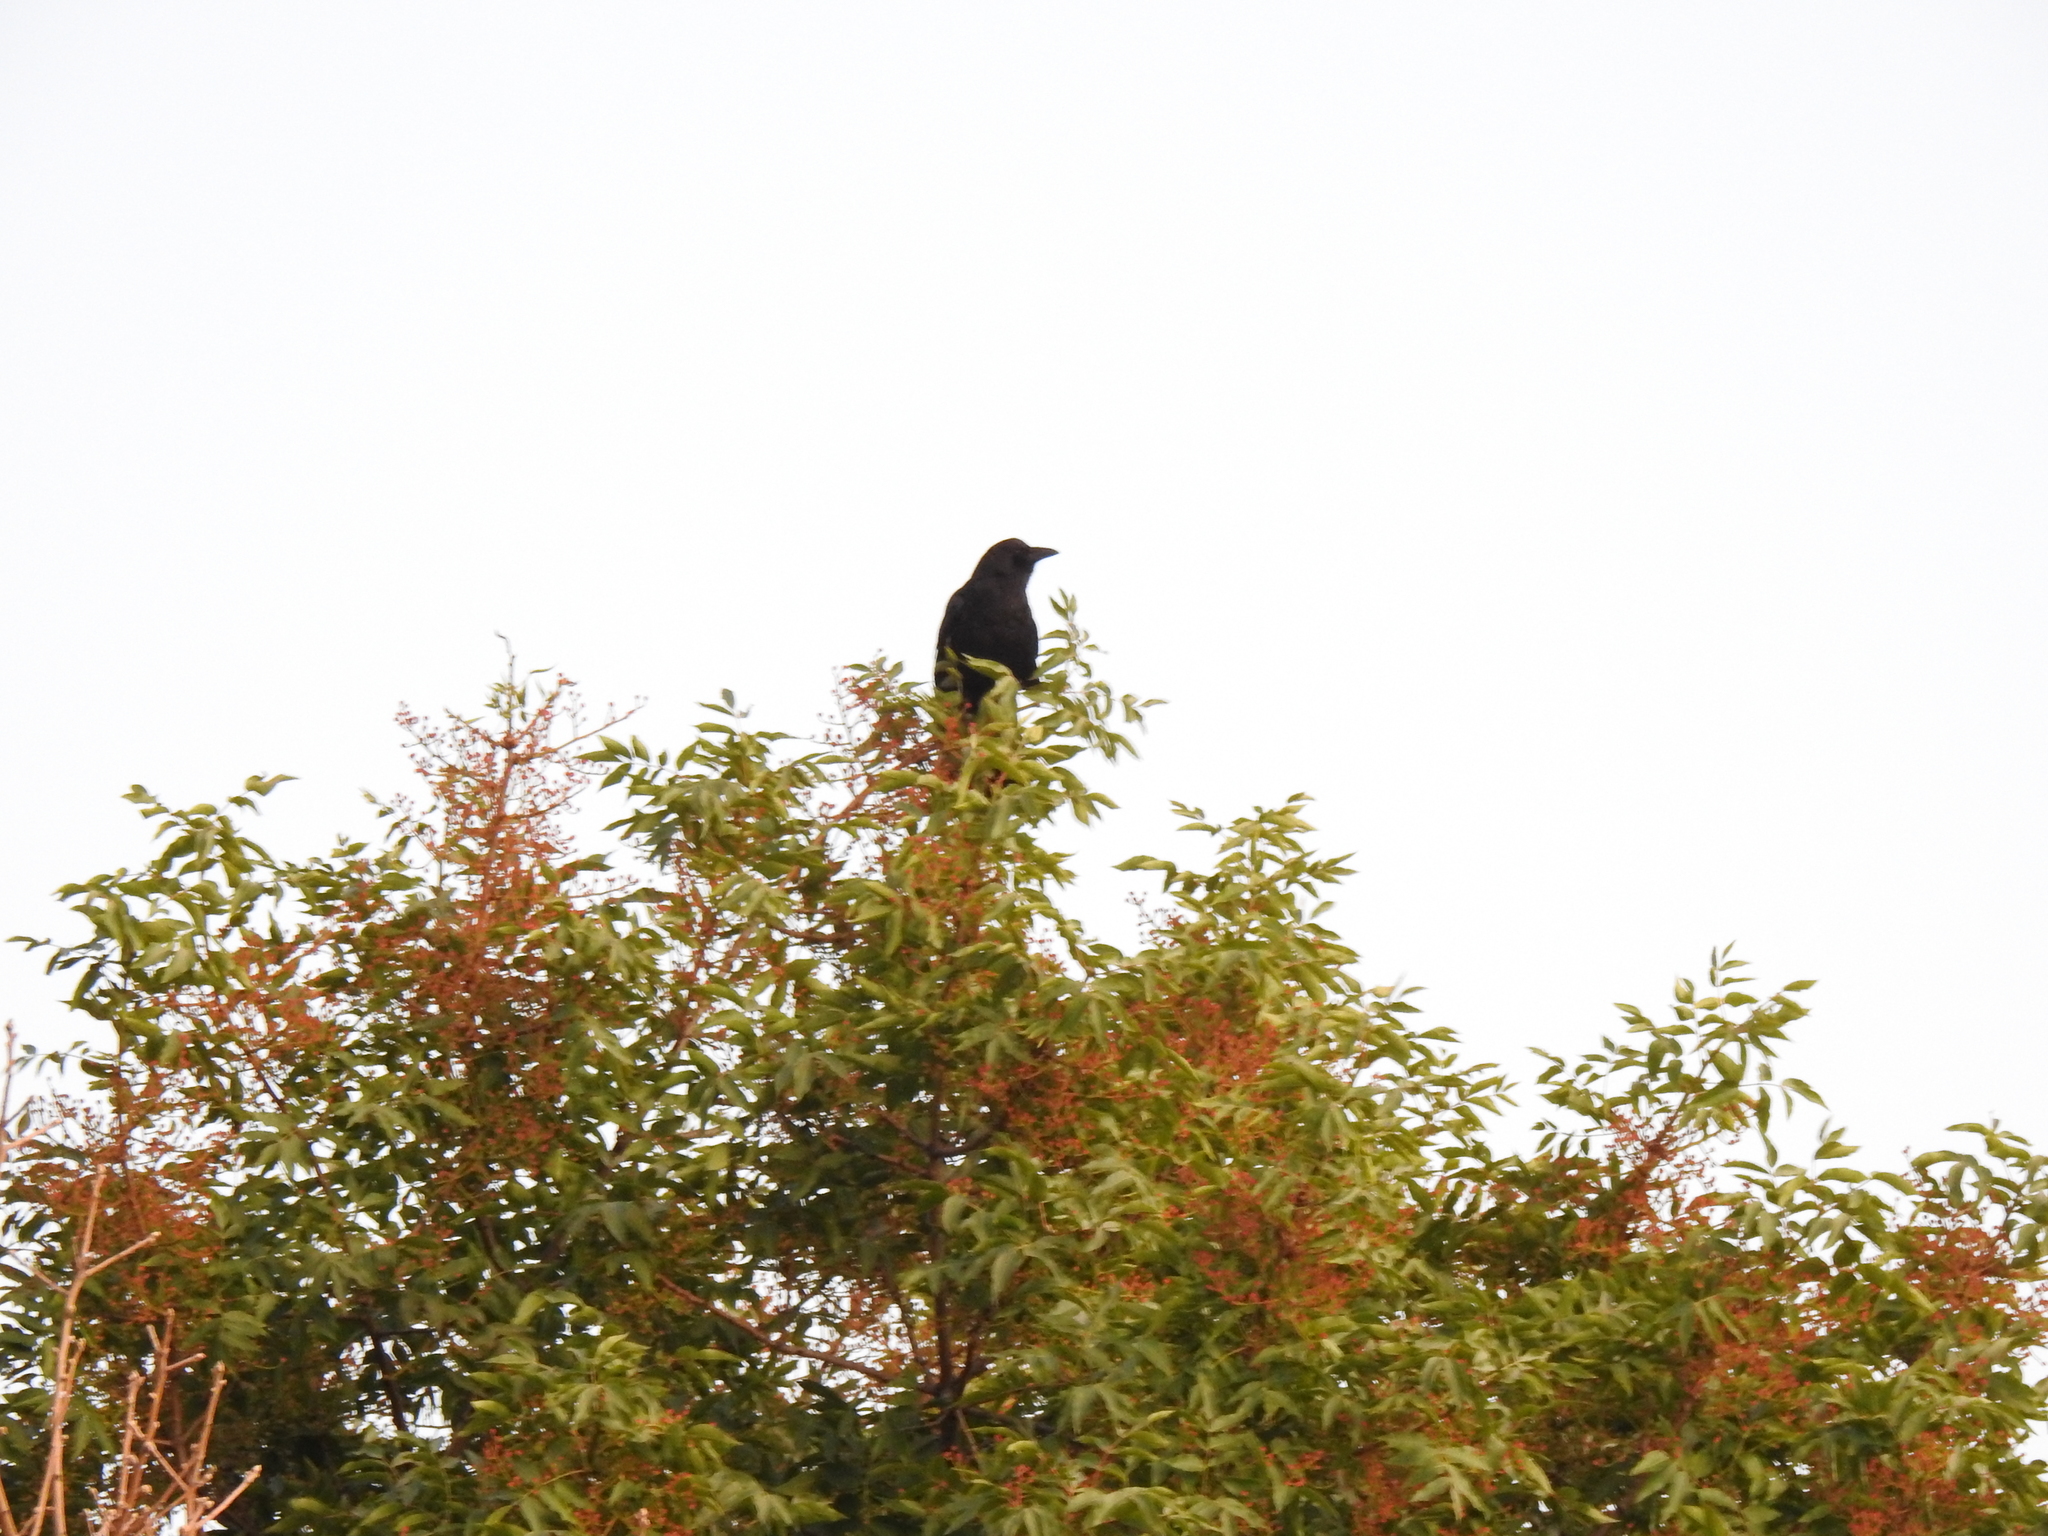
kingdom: Animalia
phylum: Chordata
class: Aves
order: Passeriformes
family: Corvidae
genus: Corvus
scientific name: Corvus brachyrhynchos
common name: American crow
